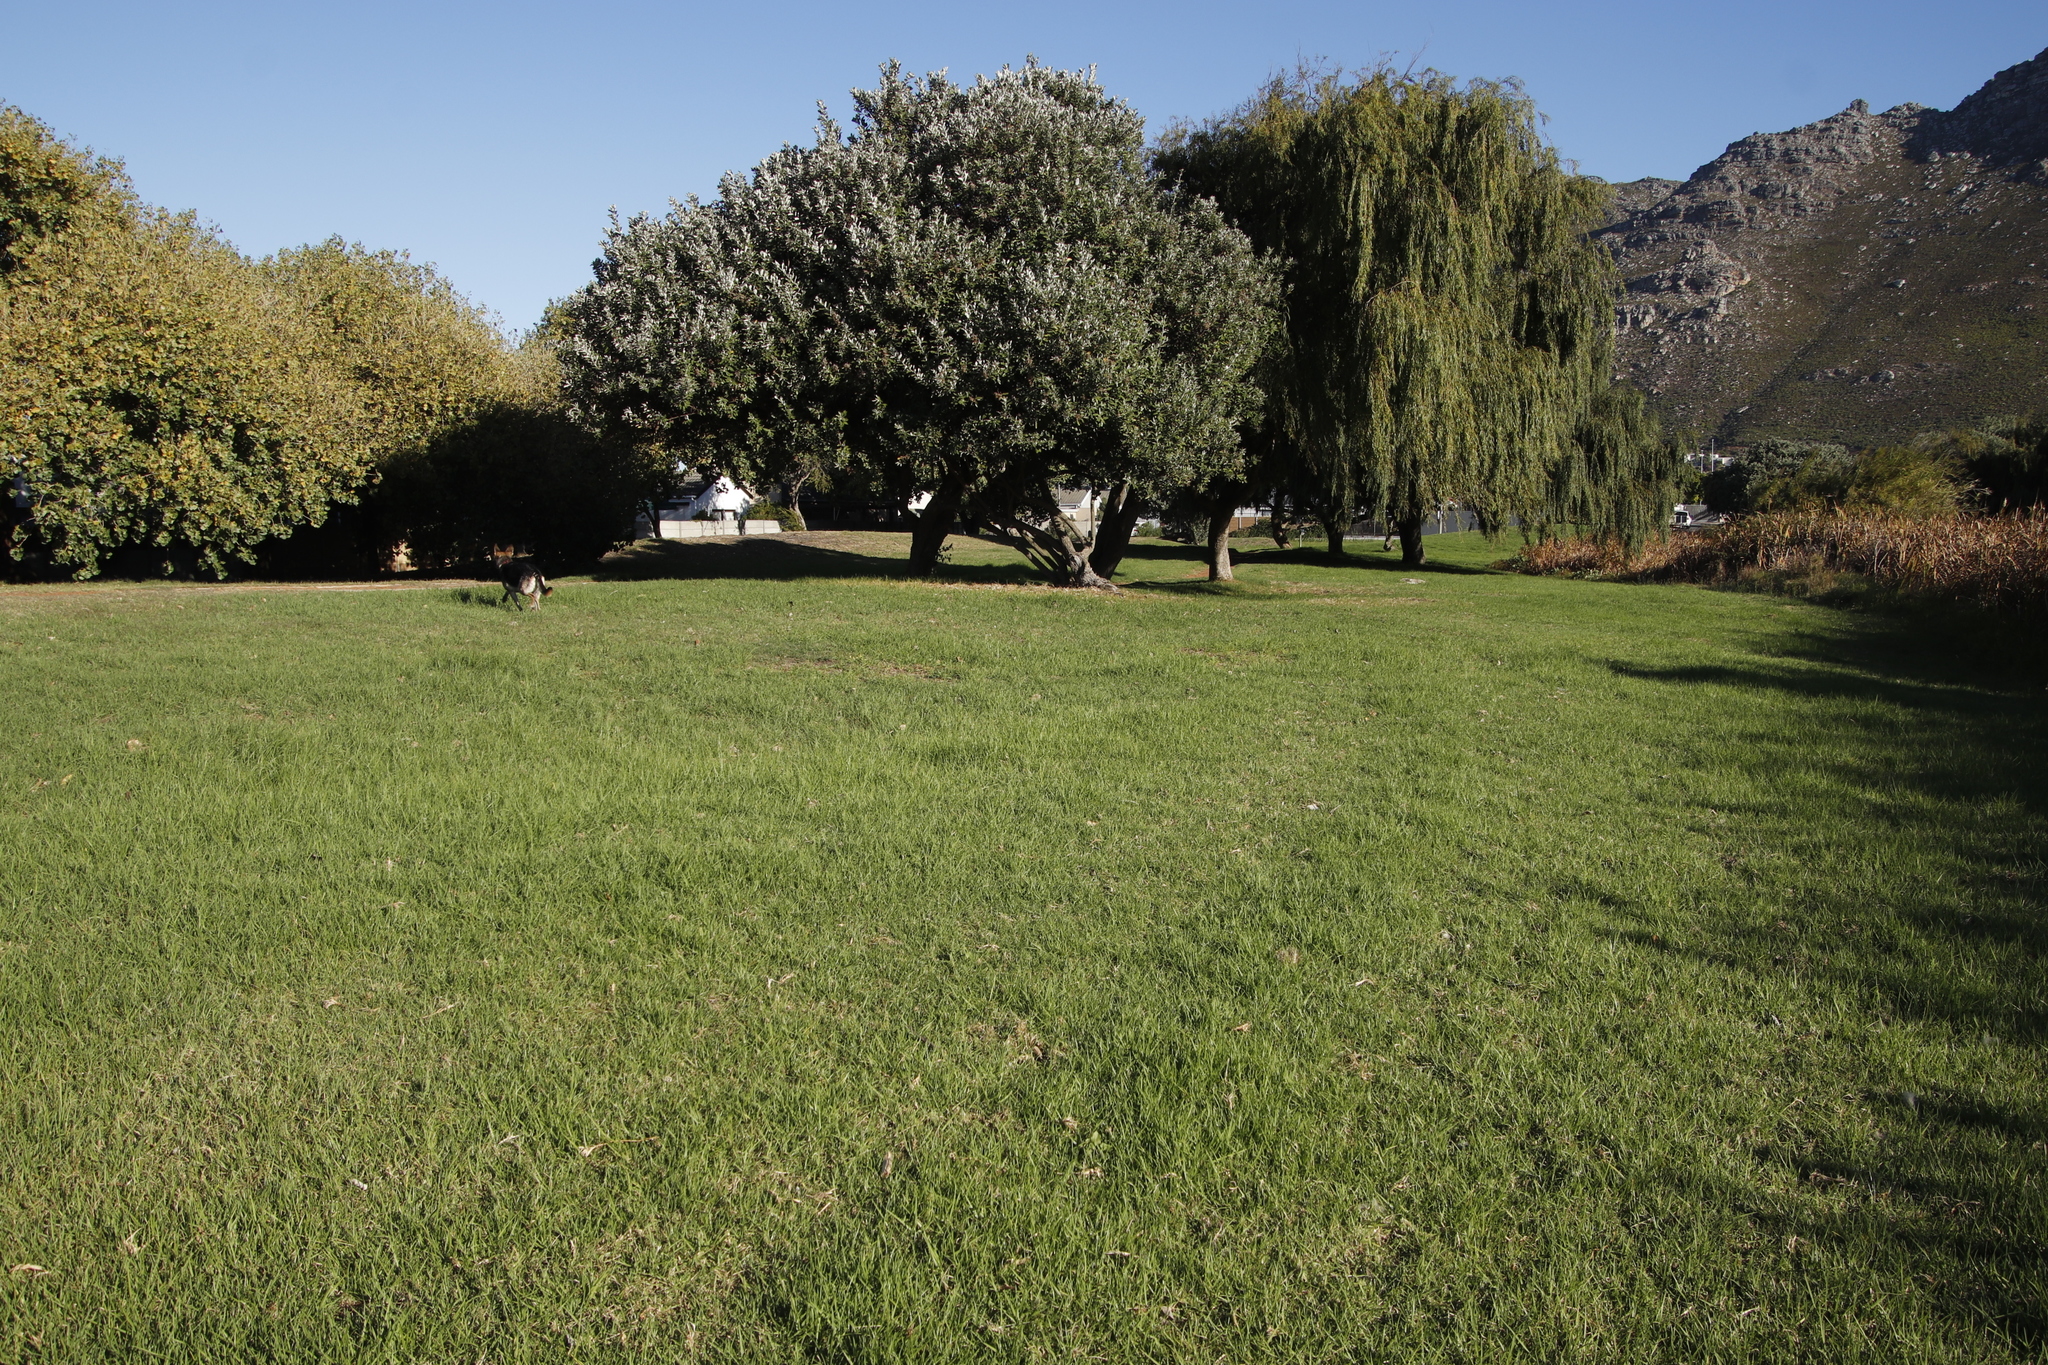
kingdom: Plantae
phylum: Tracheophyta
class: Liliopsida
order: Poales
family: Poaceae
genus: Cenchrus
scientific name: Cenchrus clandestinus
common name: Kikuyugrass
